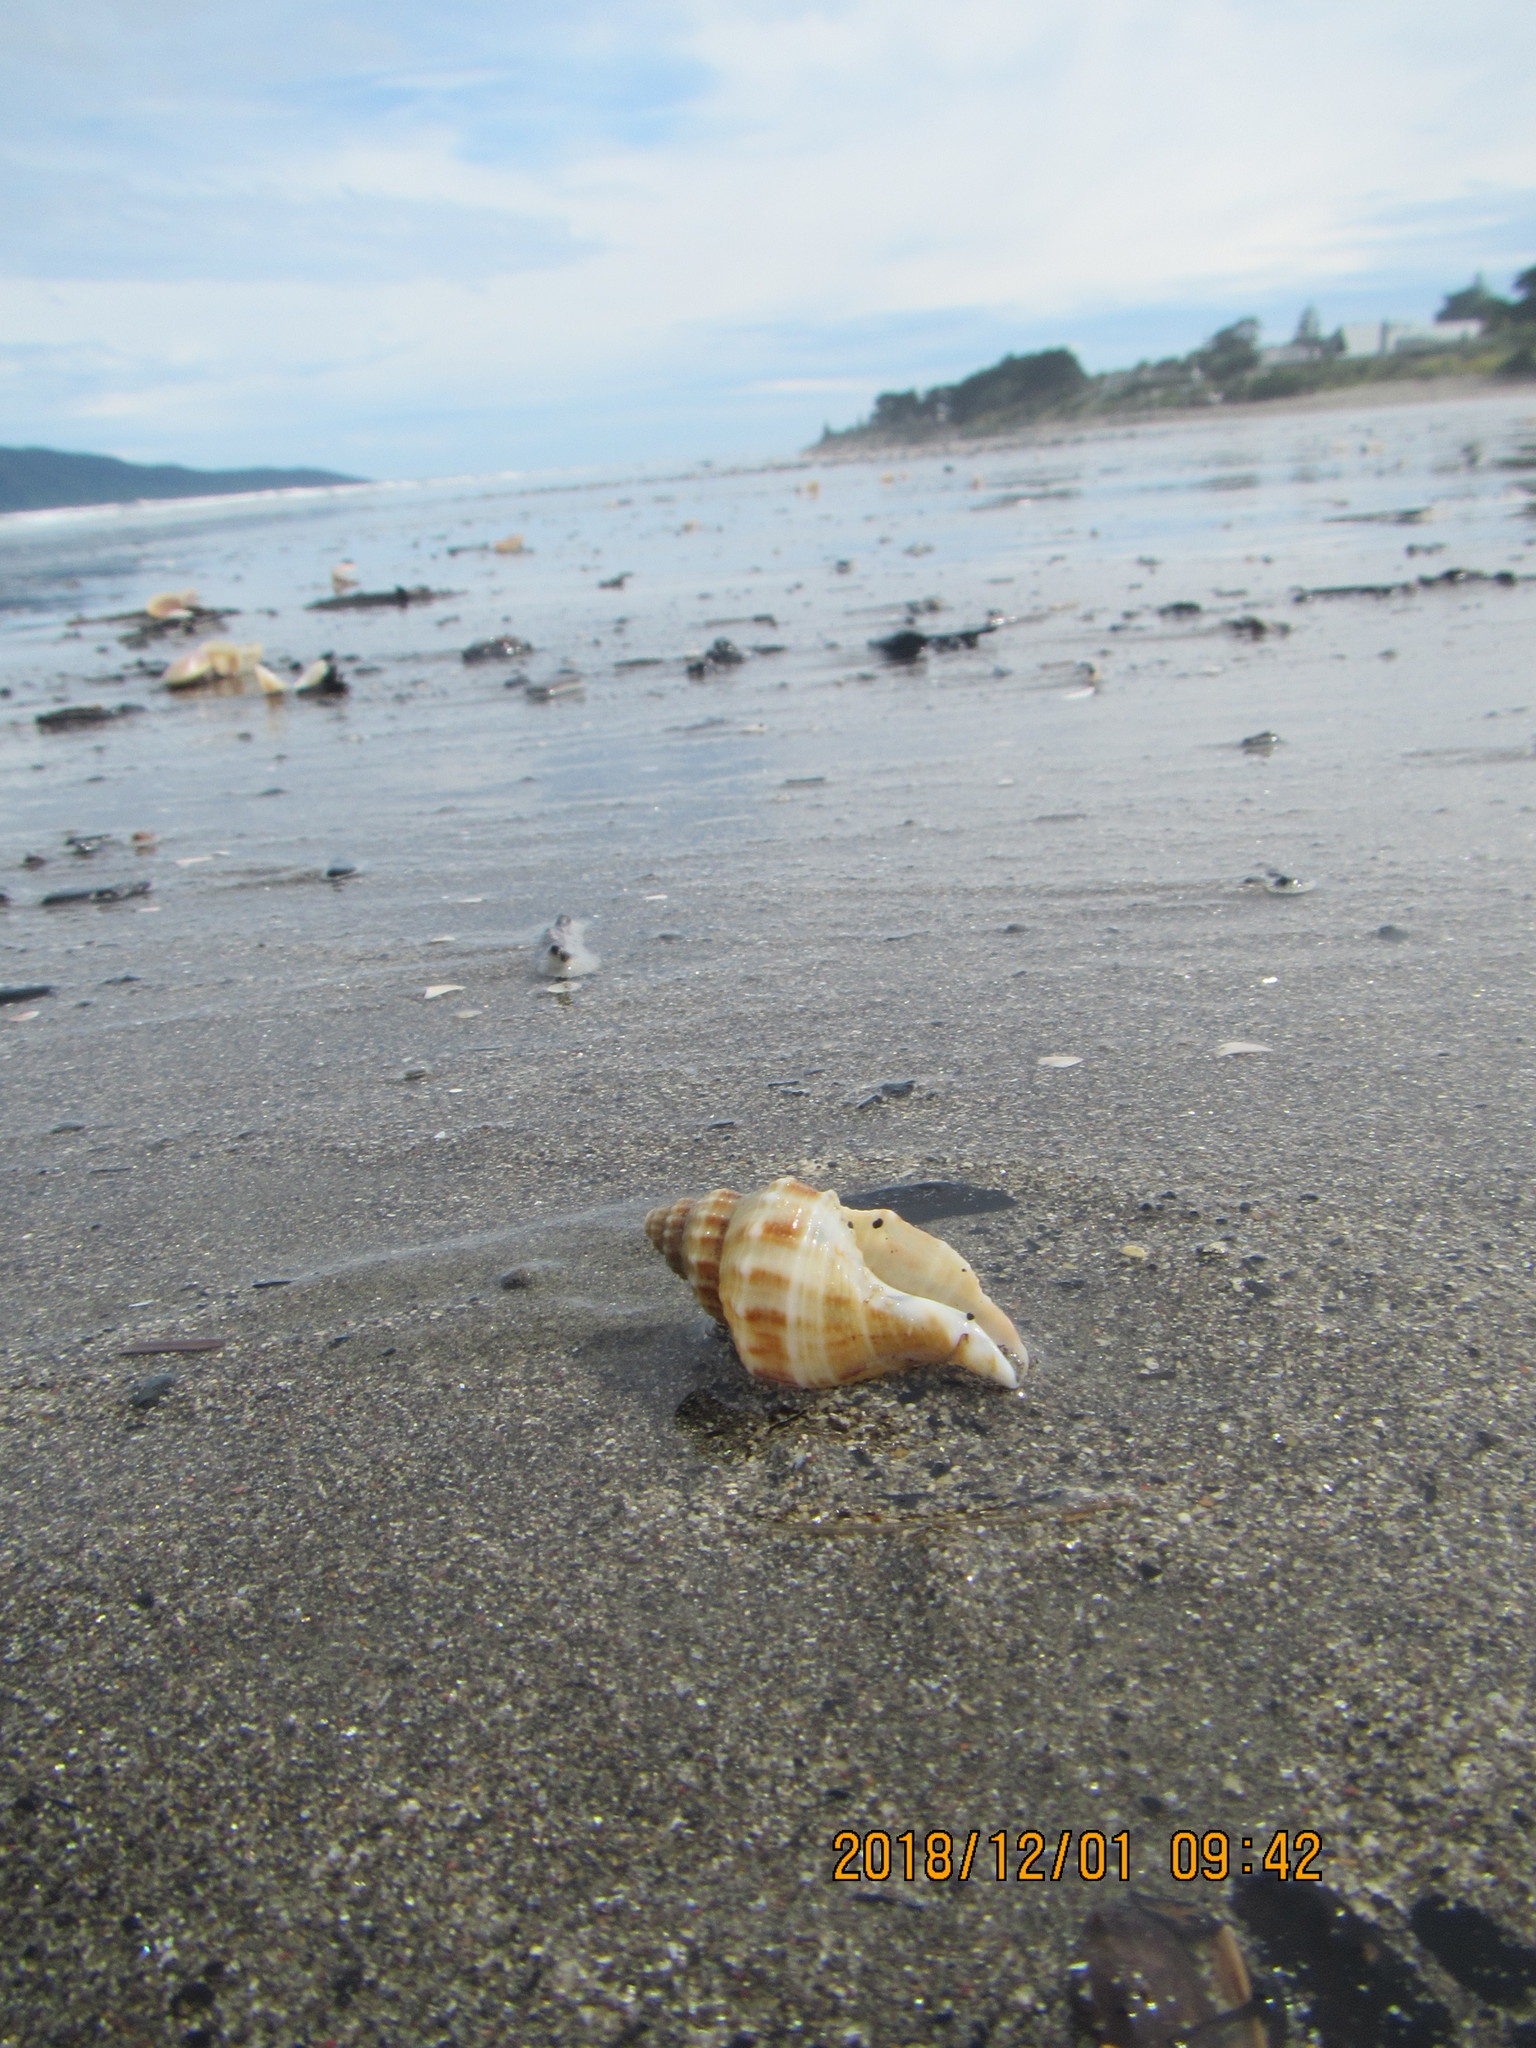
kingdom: Animalia
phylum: Mollusca
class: Gastropoda
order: Neogastropoda
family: Prosiphonidae
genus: Austrofusus
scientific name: Austrofusus glans
